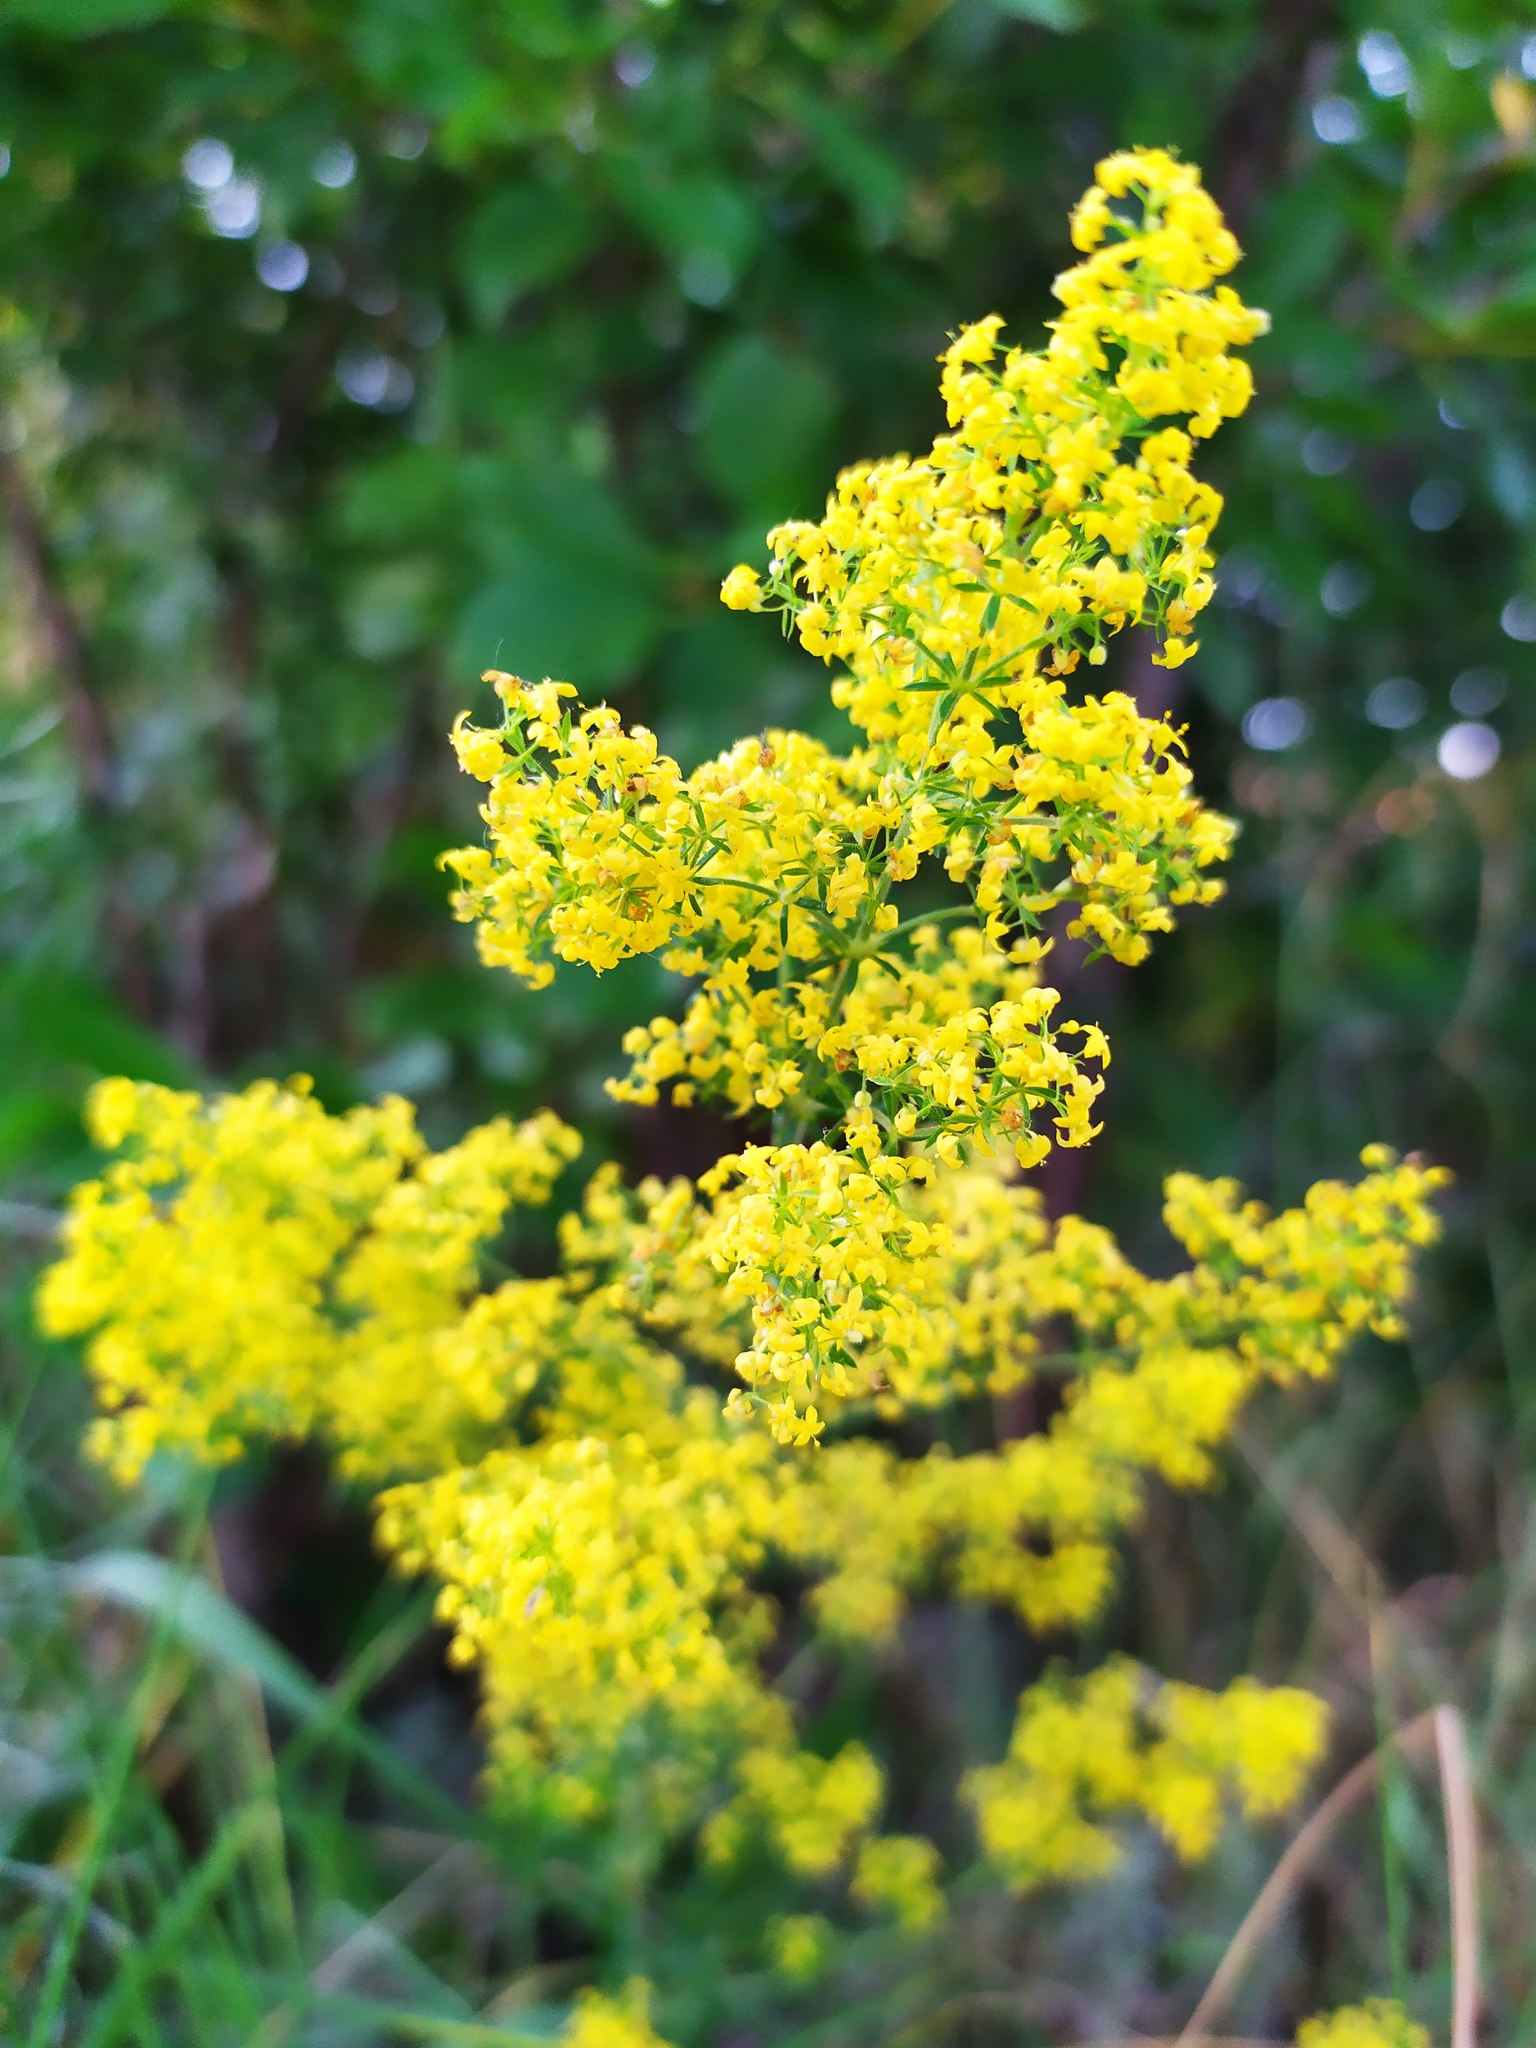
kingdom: Plantae
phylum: Tracheophyta
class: Magnoliopsida
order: Gentianales
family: Rubiaceae
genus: Galium
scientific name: Galium verum
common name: Lady's bedstraw
